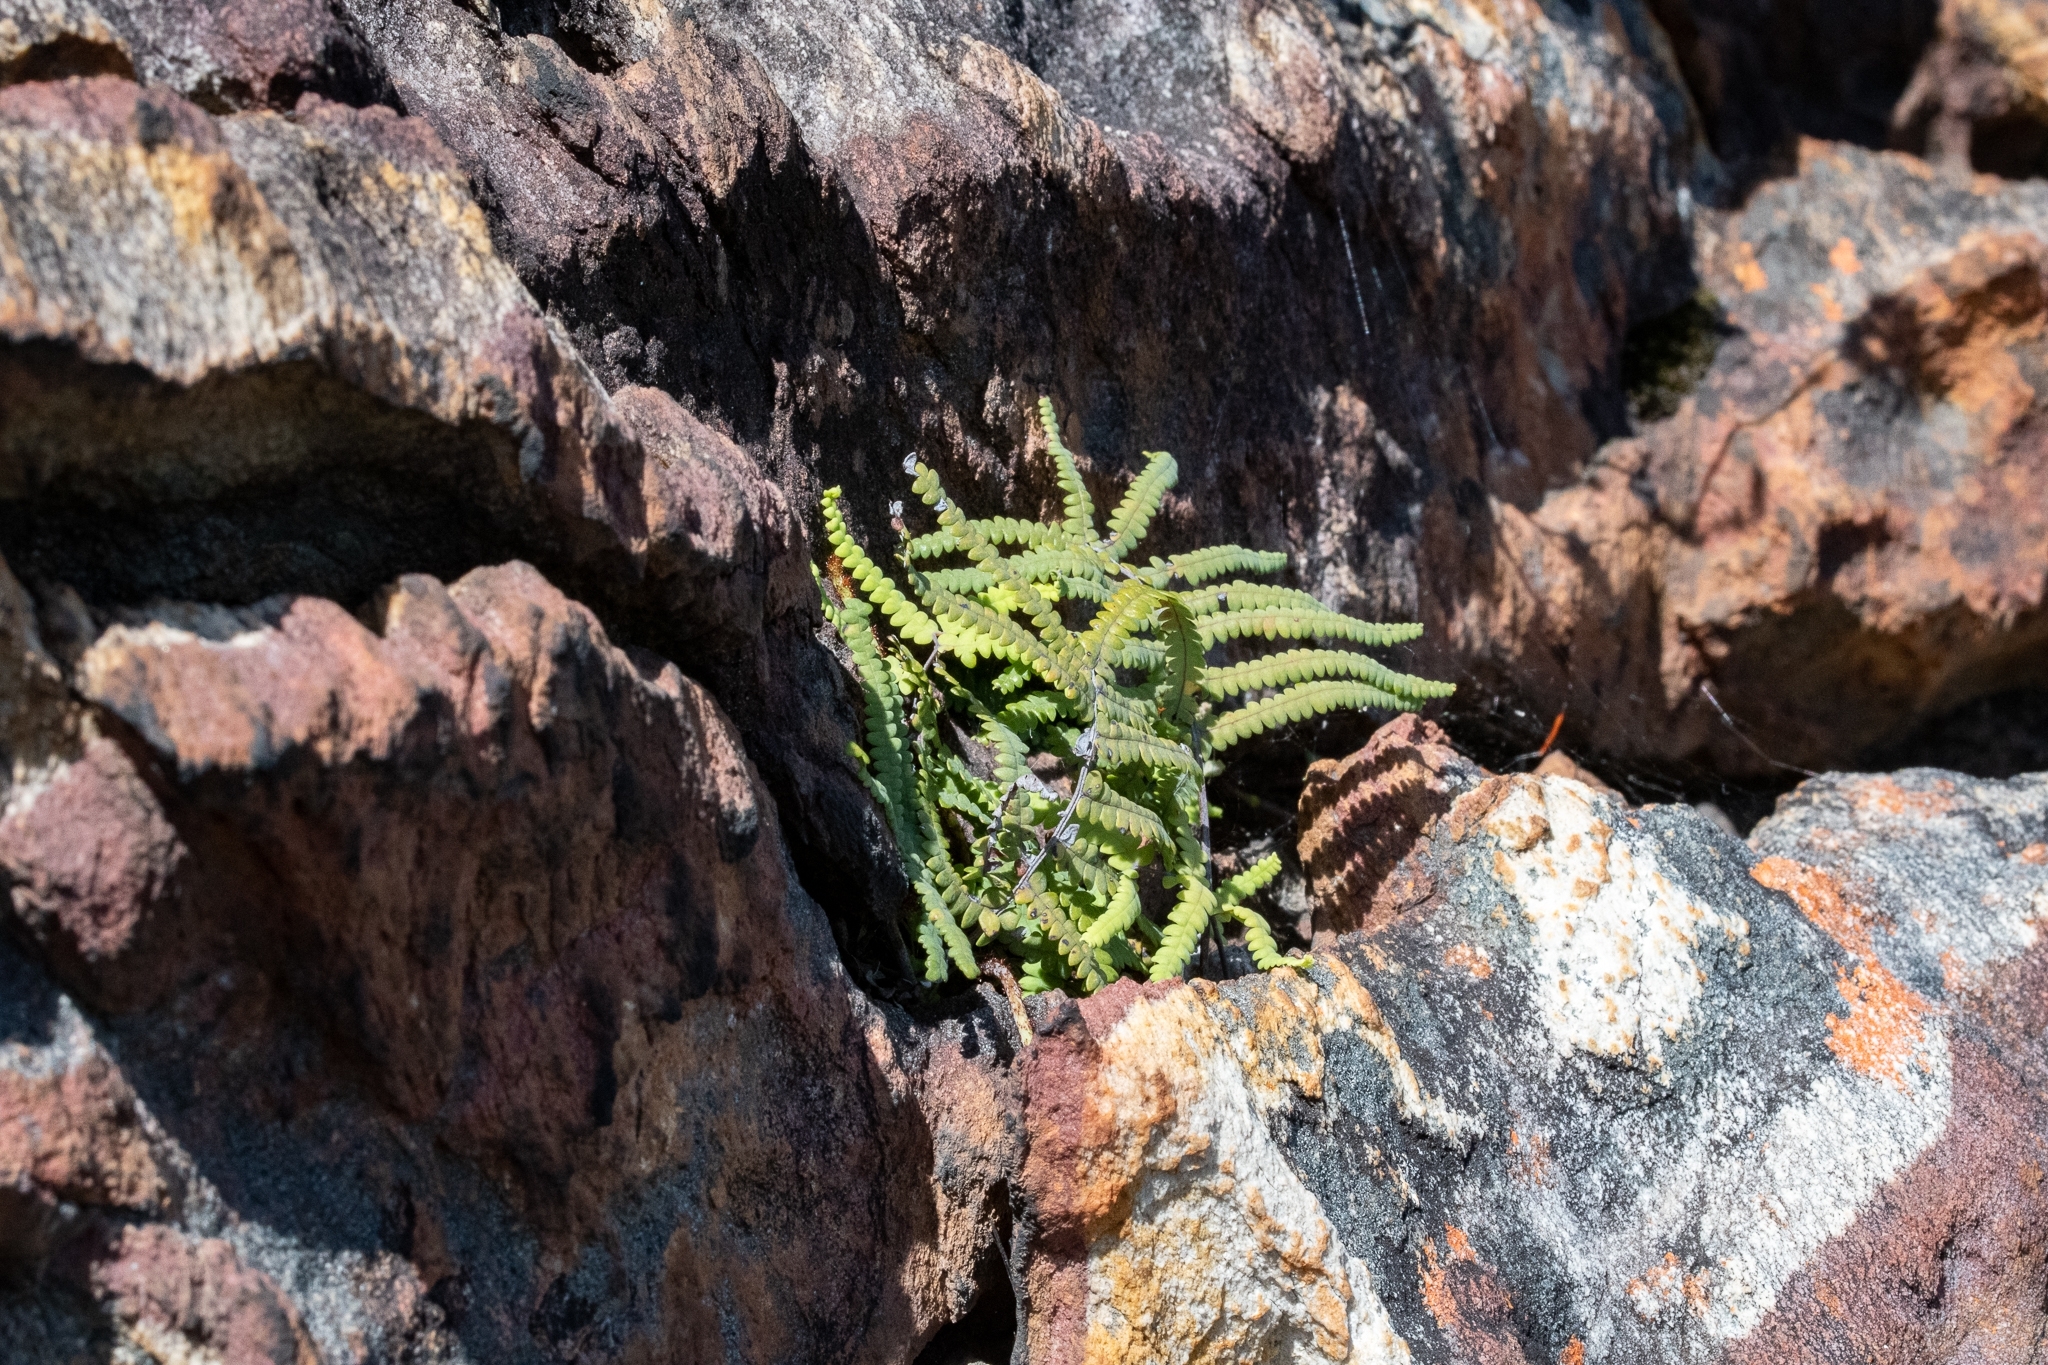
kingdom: Plantae
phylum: Tracheophyta
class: Polypodiopsida
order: Gleicheniales
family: Gleicheniaceae
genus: Gleichenia
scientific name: Gleichenia polypodioides
